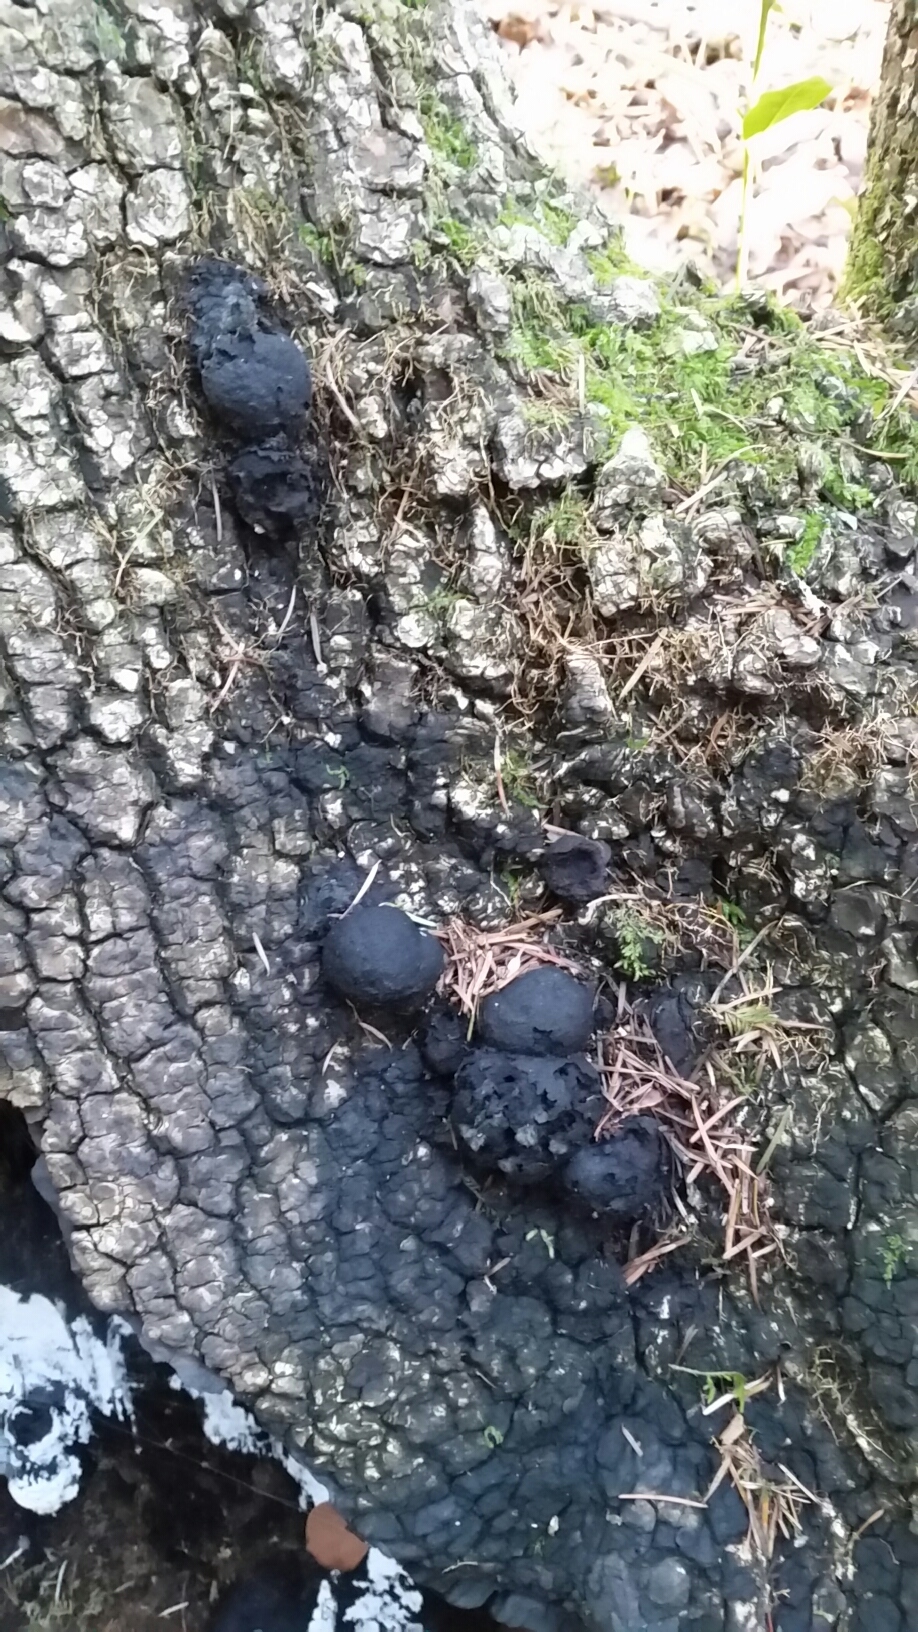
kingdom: Fungi
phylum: Ascomycota
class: Sordariomycetes
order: Xylariales
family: Hypoxylaceae
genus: Annulohypoxylon
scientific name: Annulohypoxylon thouarsianum
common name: Cramp balls
